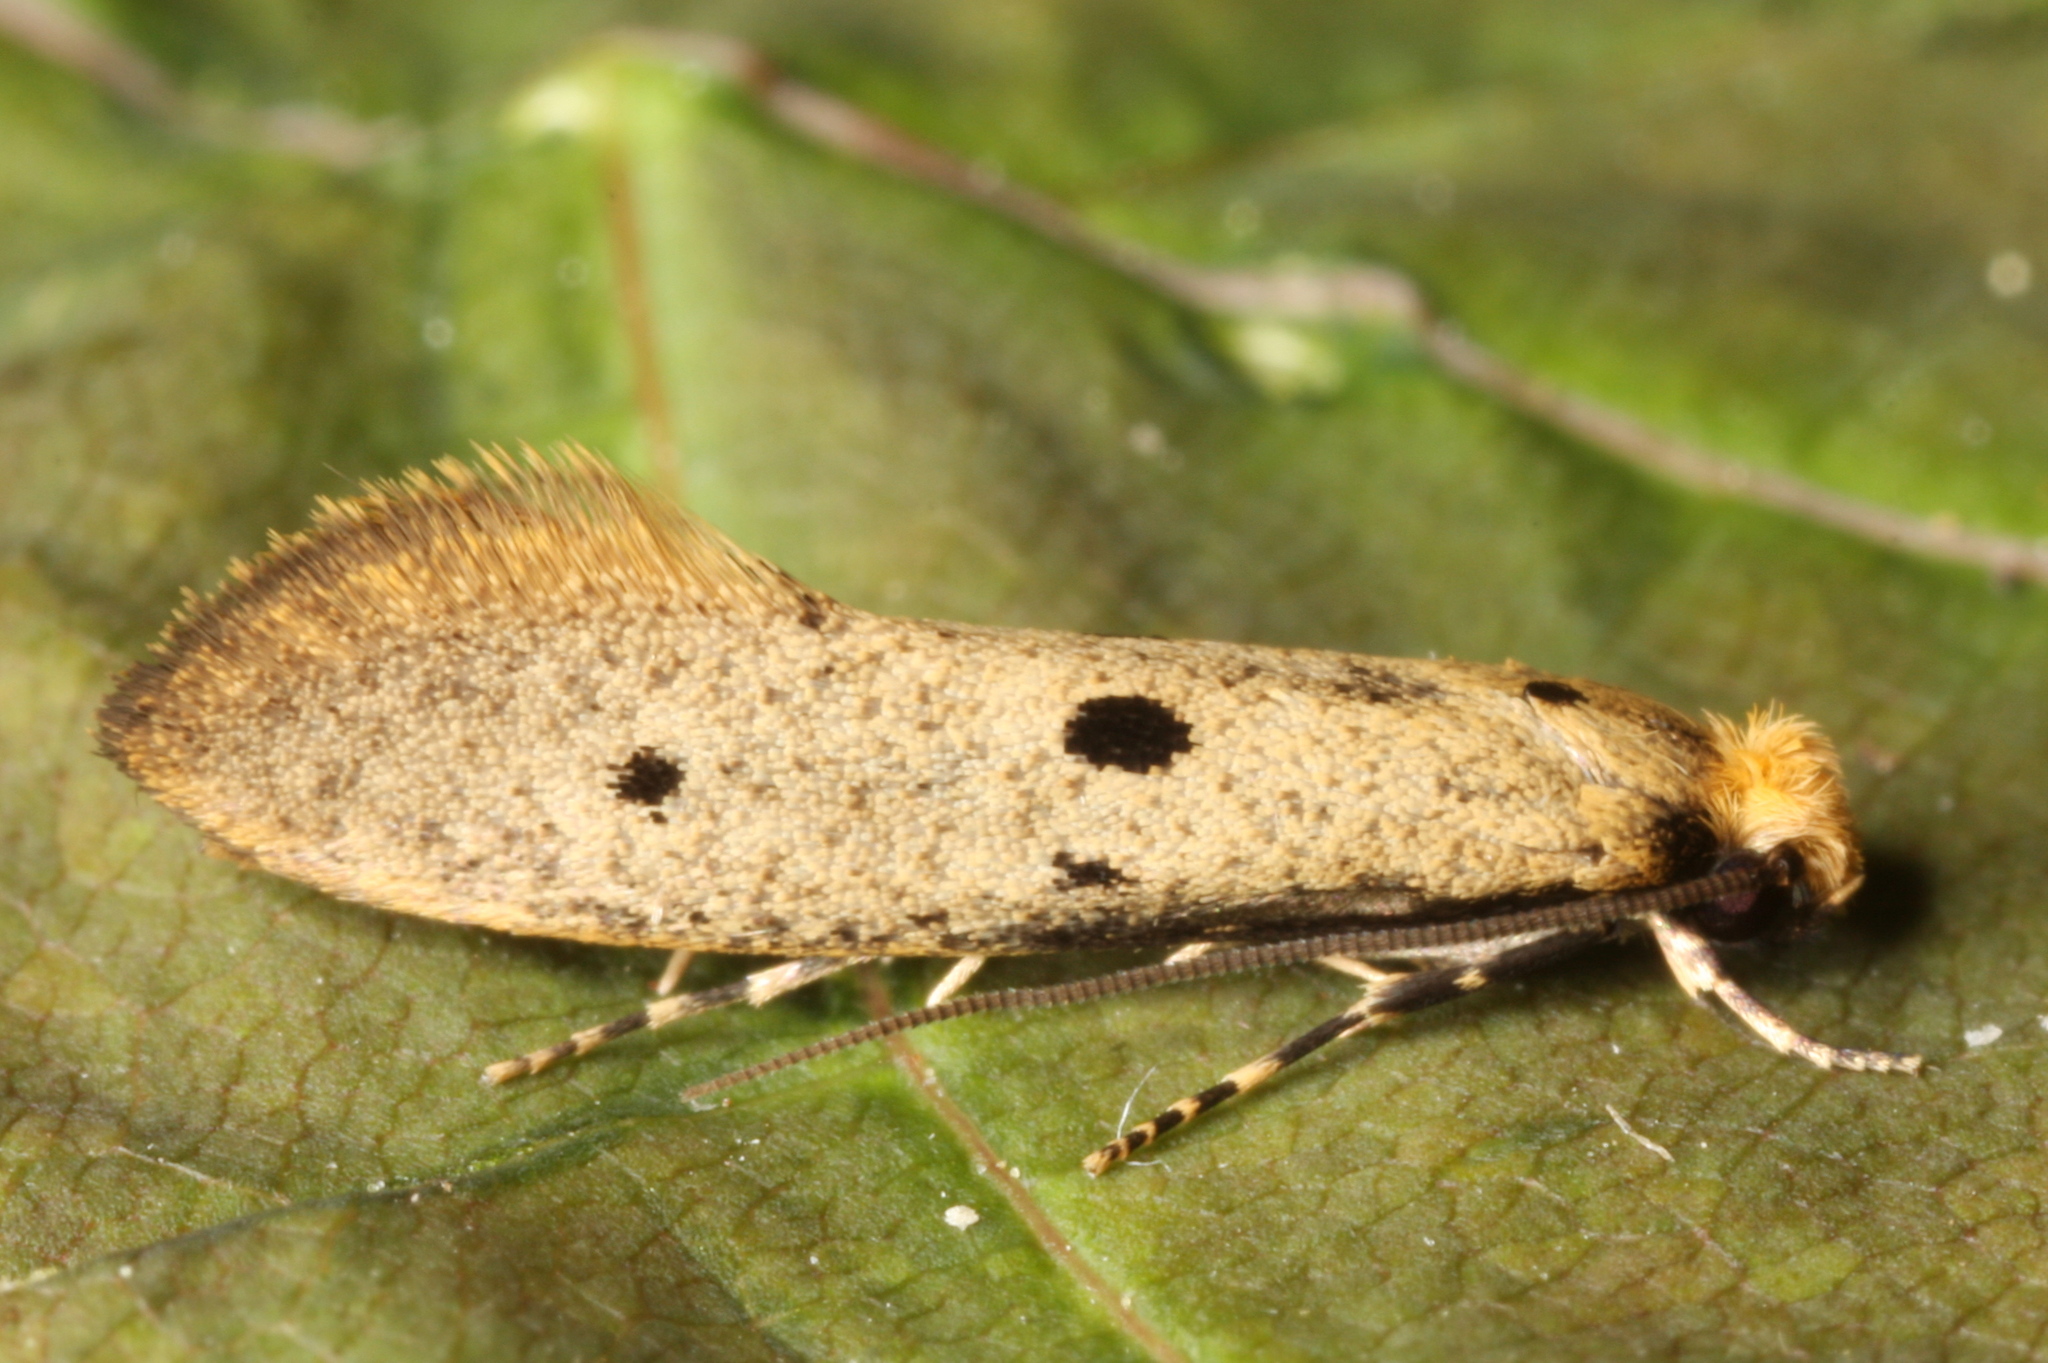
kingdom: Animalia
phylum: Arthropoda
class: Insecta
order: Lepidoptera
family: Tineidae
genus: Tinea
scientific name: Tinea trinotella
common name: Bird's-nest moth
